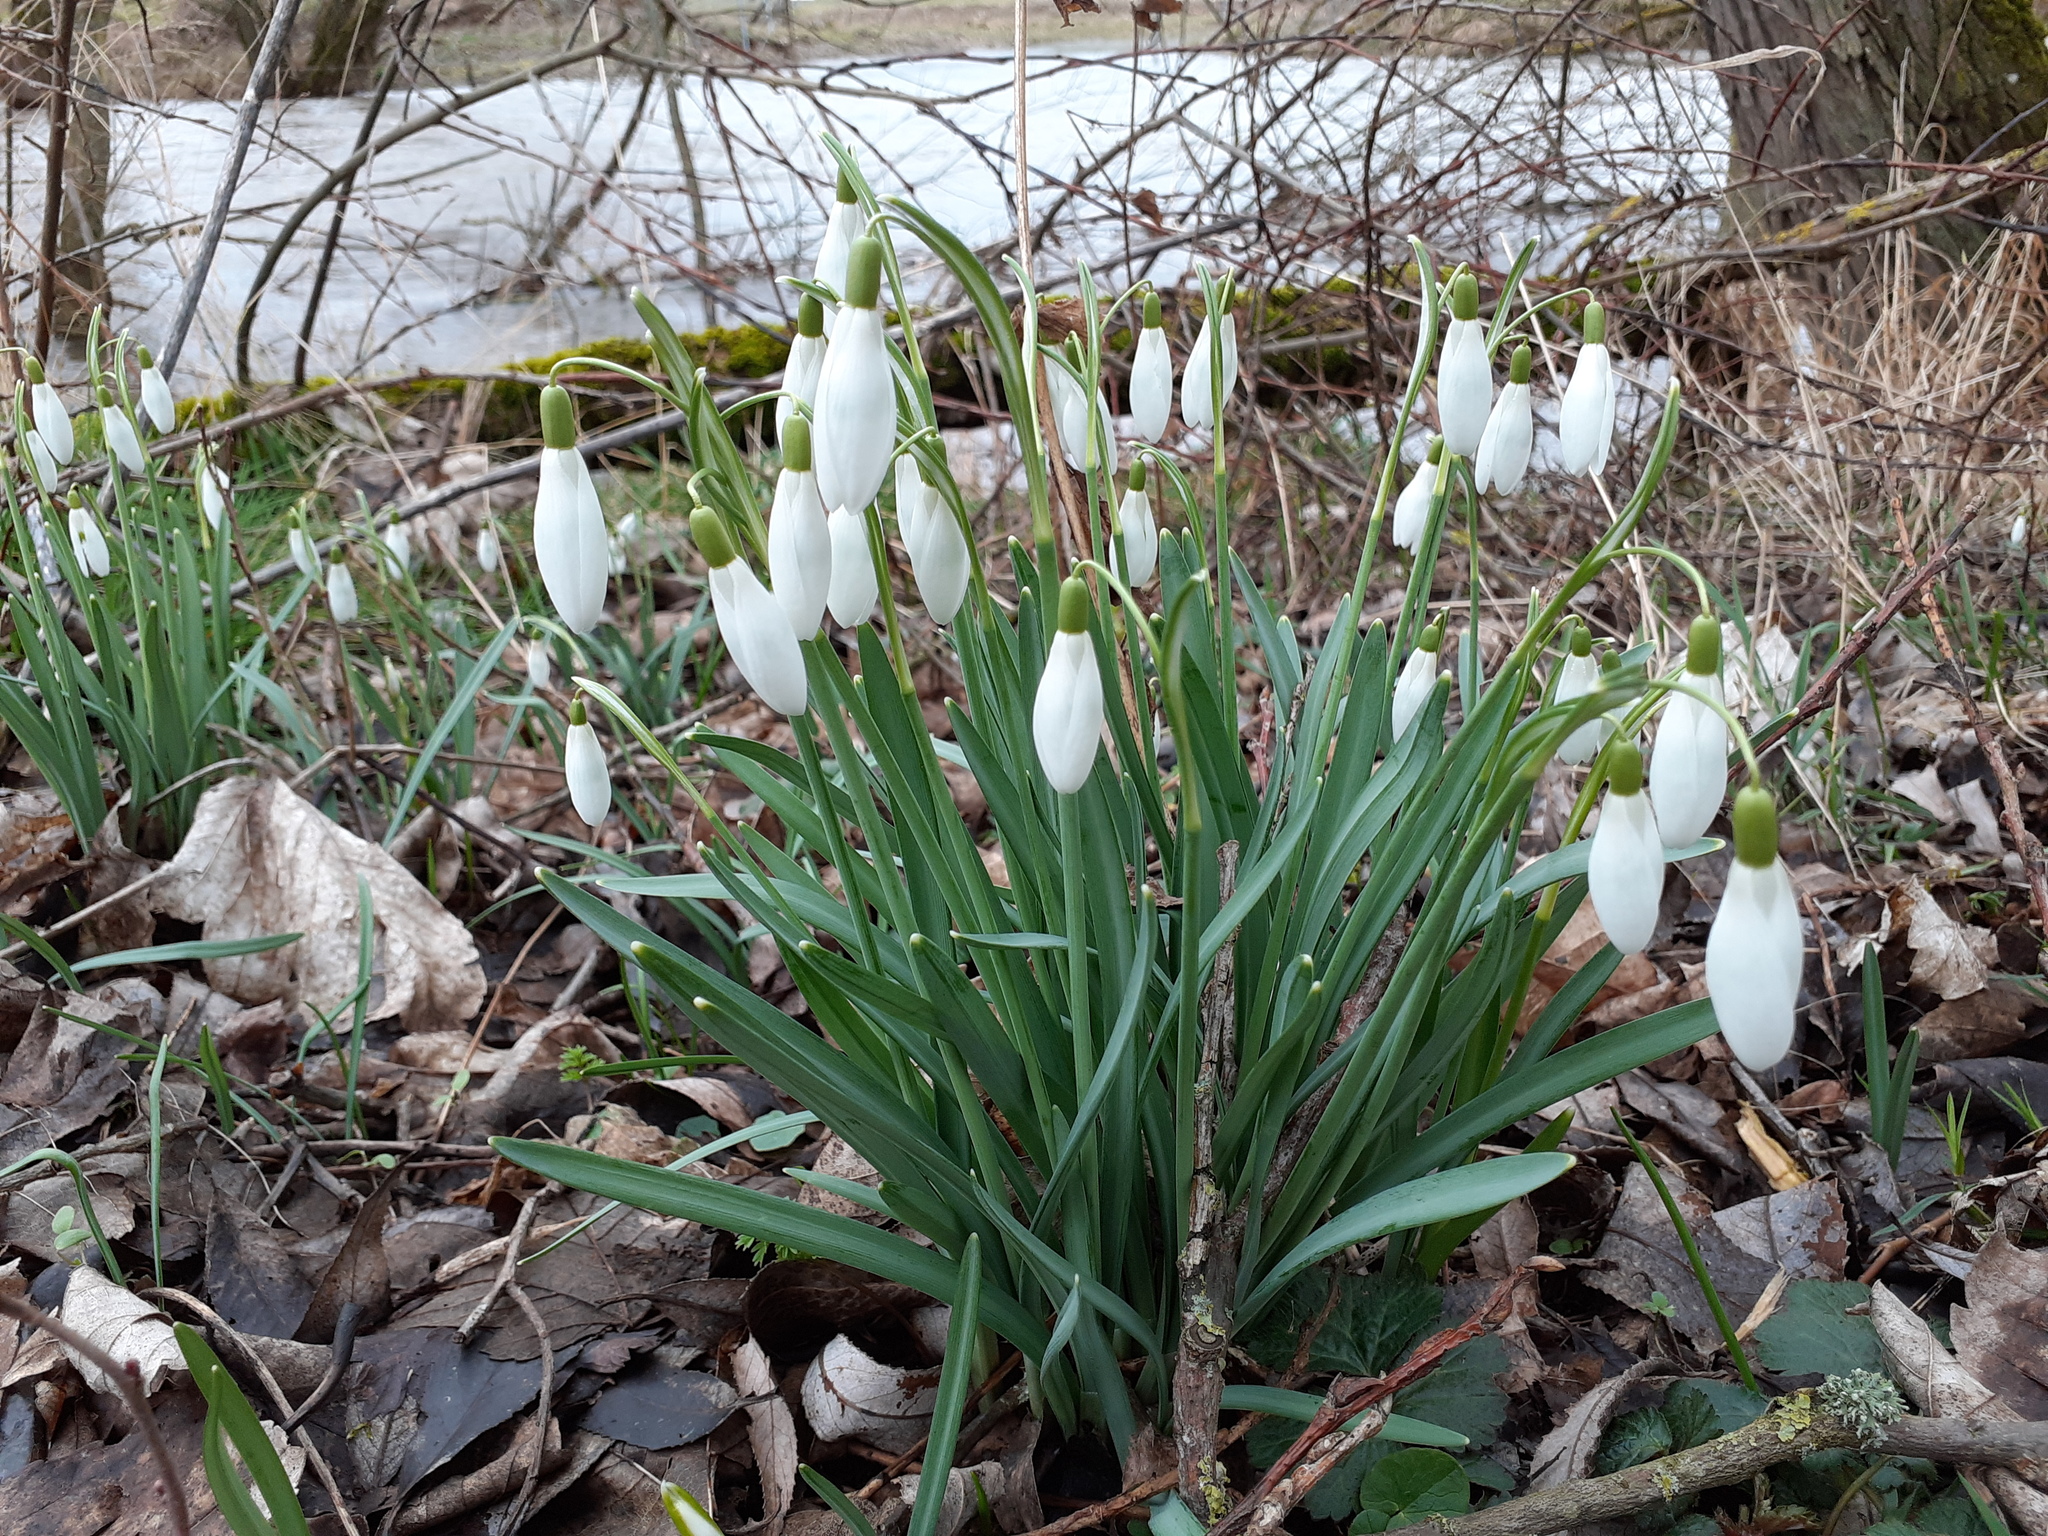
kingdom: Plantae
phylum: Tracheophyta
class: Liliopsida
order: Asparagales
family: Amaryllidaceae
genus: Galanthus
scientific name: Galanthus nivalis
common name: Snowdrop
